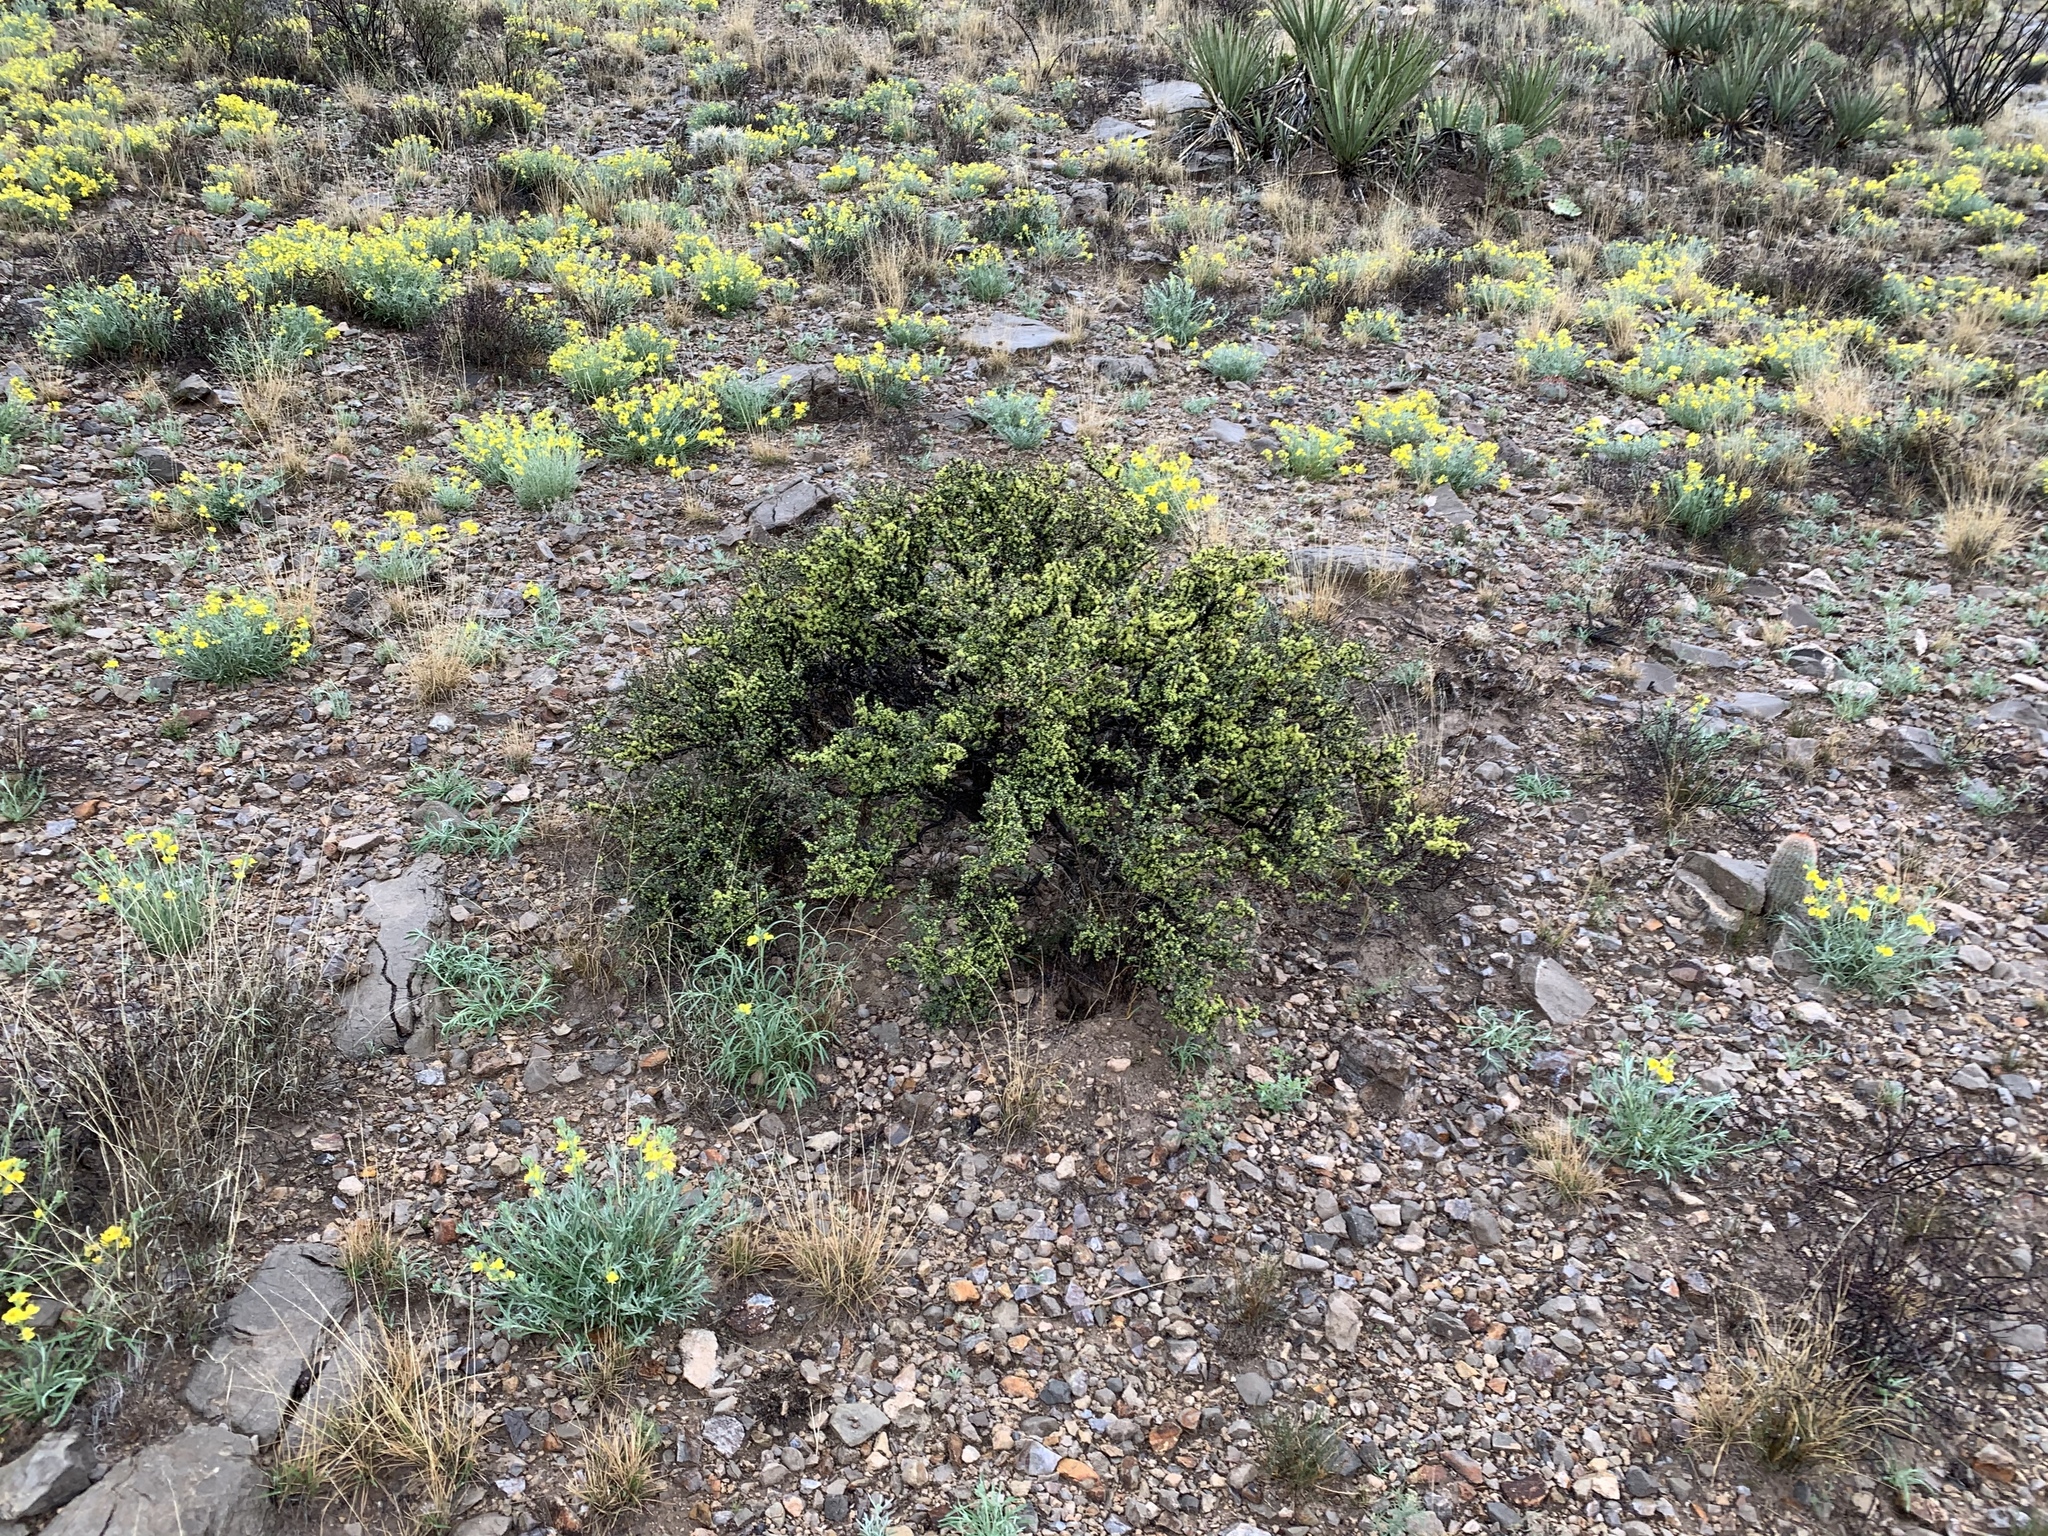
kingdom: Plantae
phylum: Tracheophyta
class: Magnoliopsida
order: Rosales
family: Rhamnaceae
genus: Condalia
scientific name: Condalia ericoides
